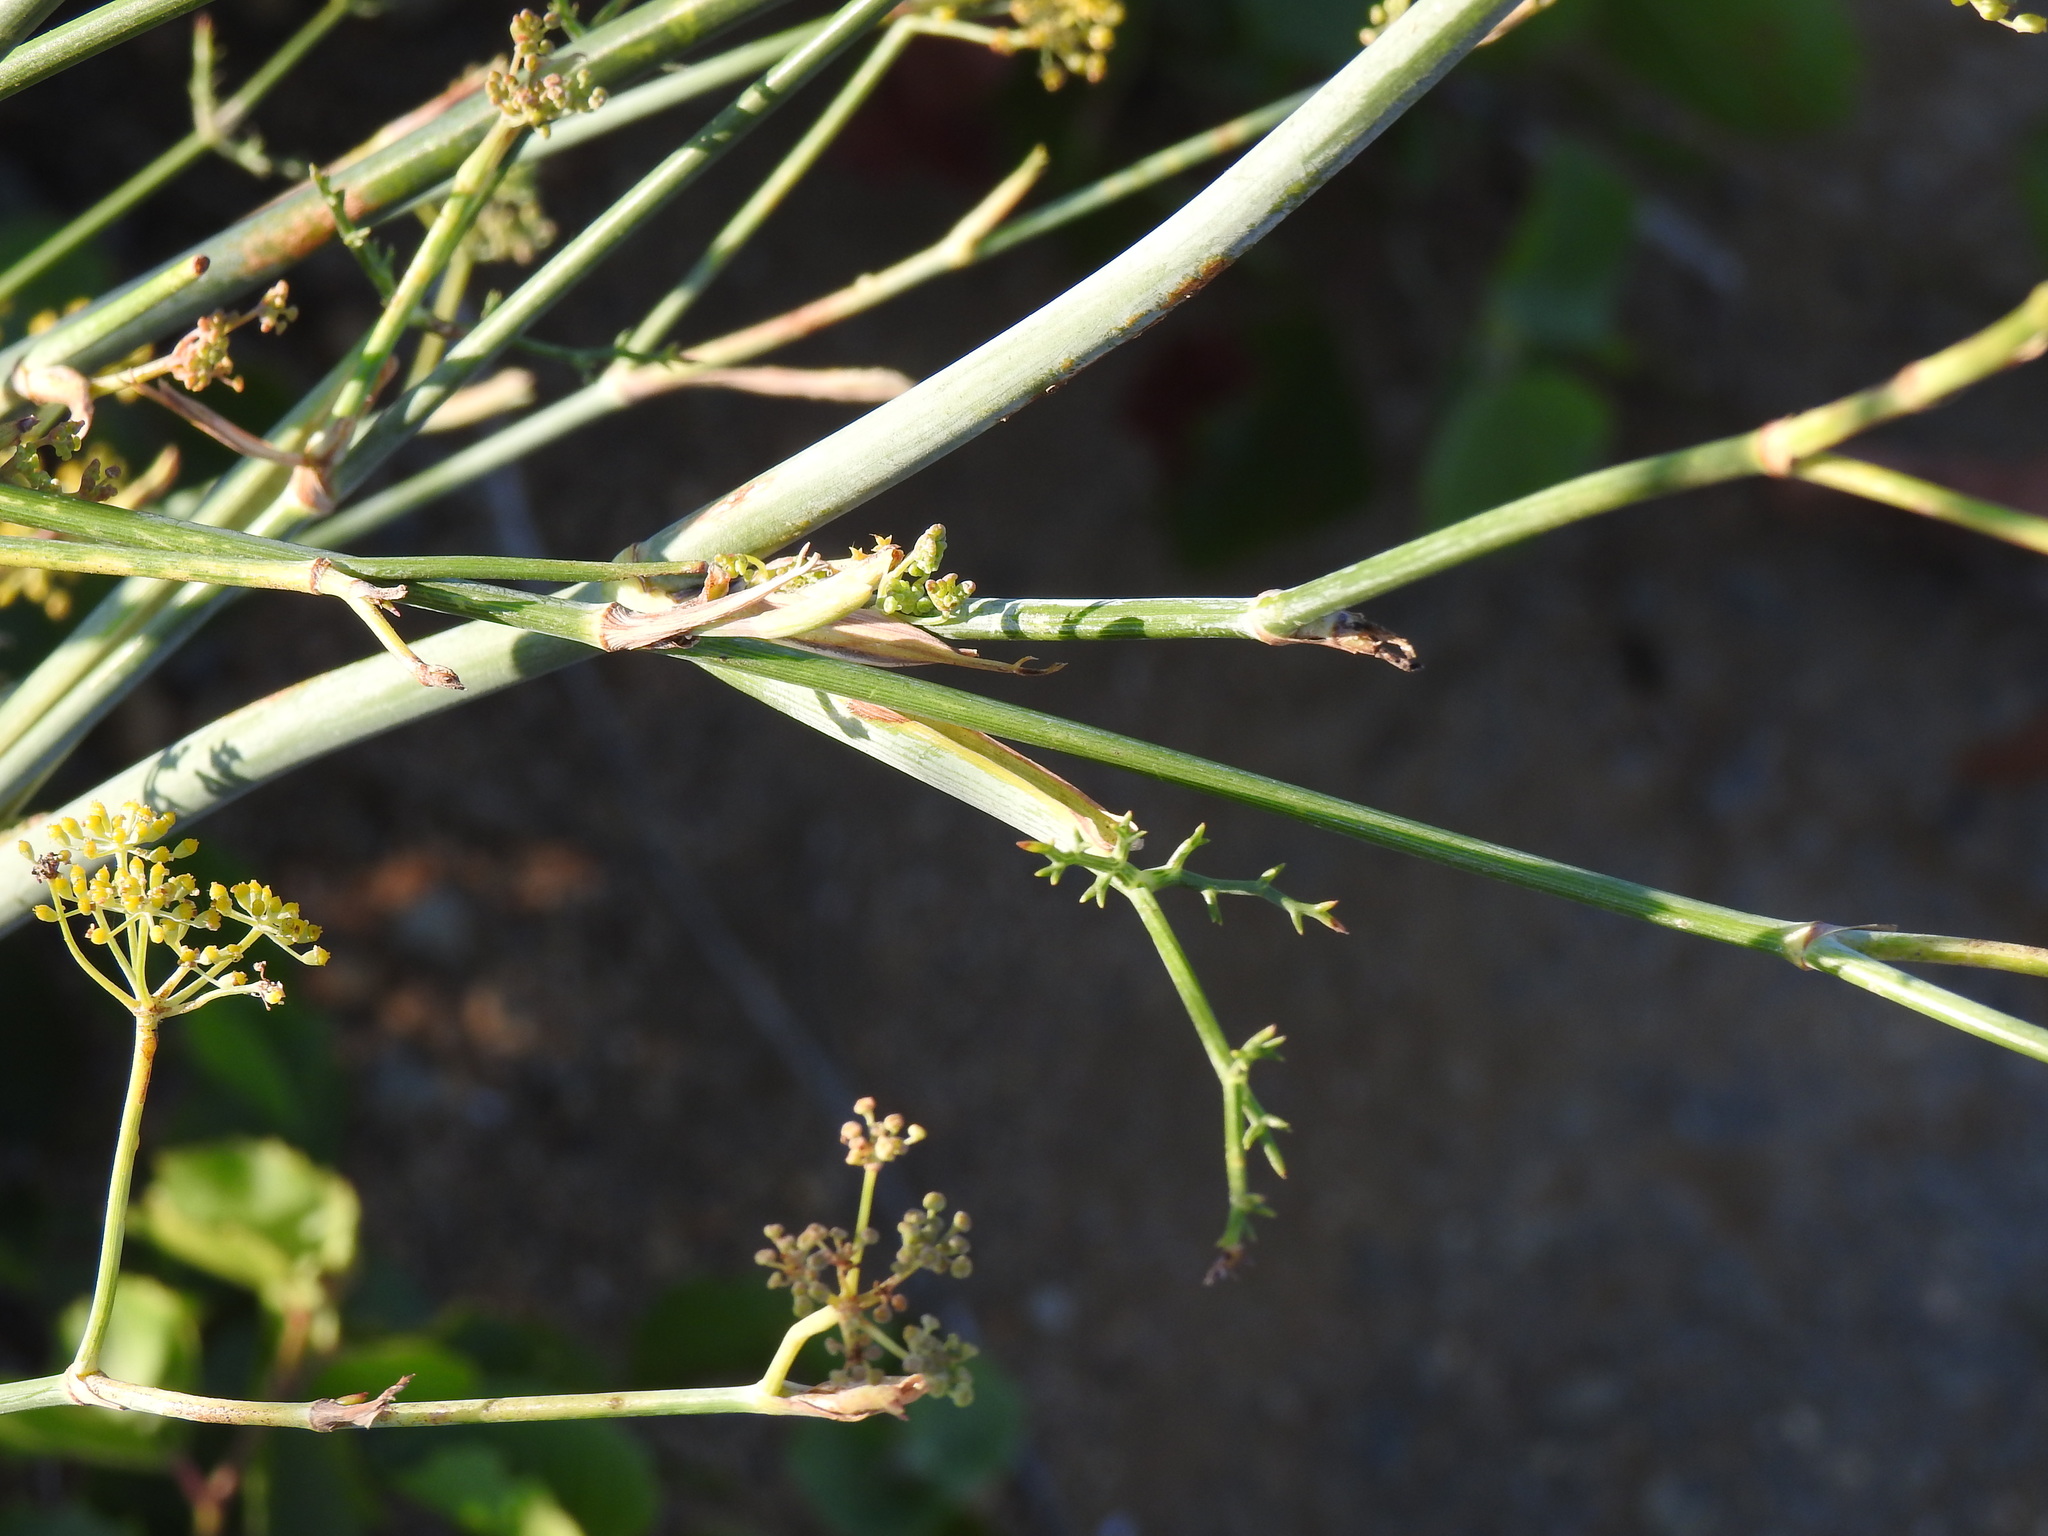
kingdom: Plantae
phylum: Tracheophyta
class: Magnoliopsida
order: Apiales
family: Apiaceae
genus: Foeniculum
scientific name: Foeniculum vulgare
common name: Fennel
